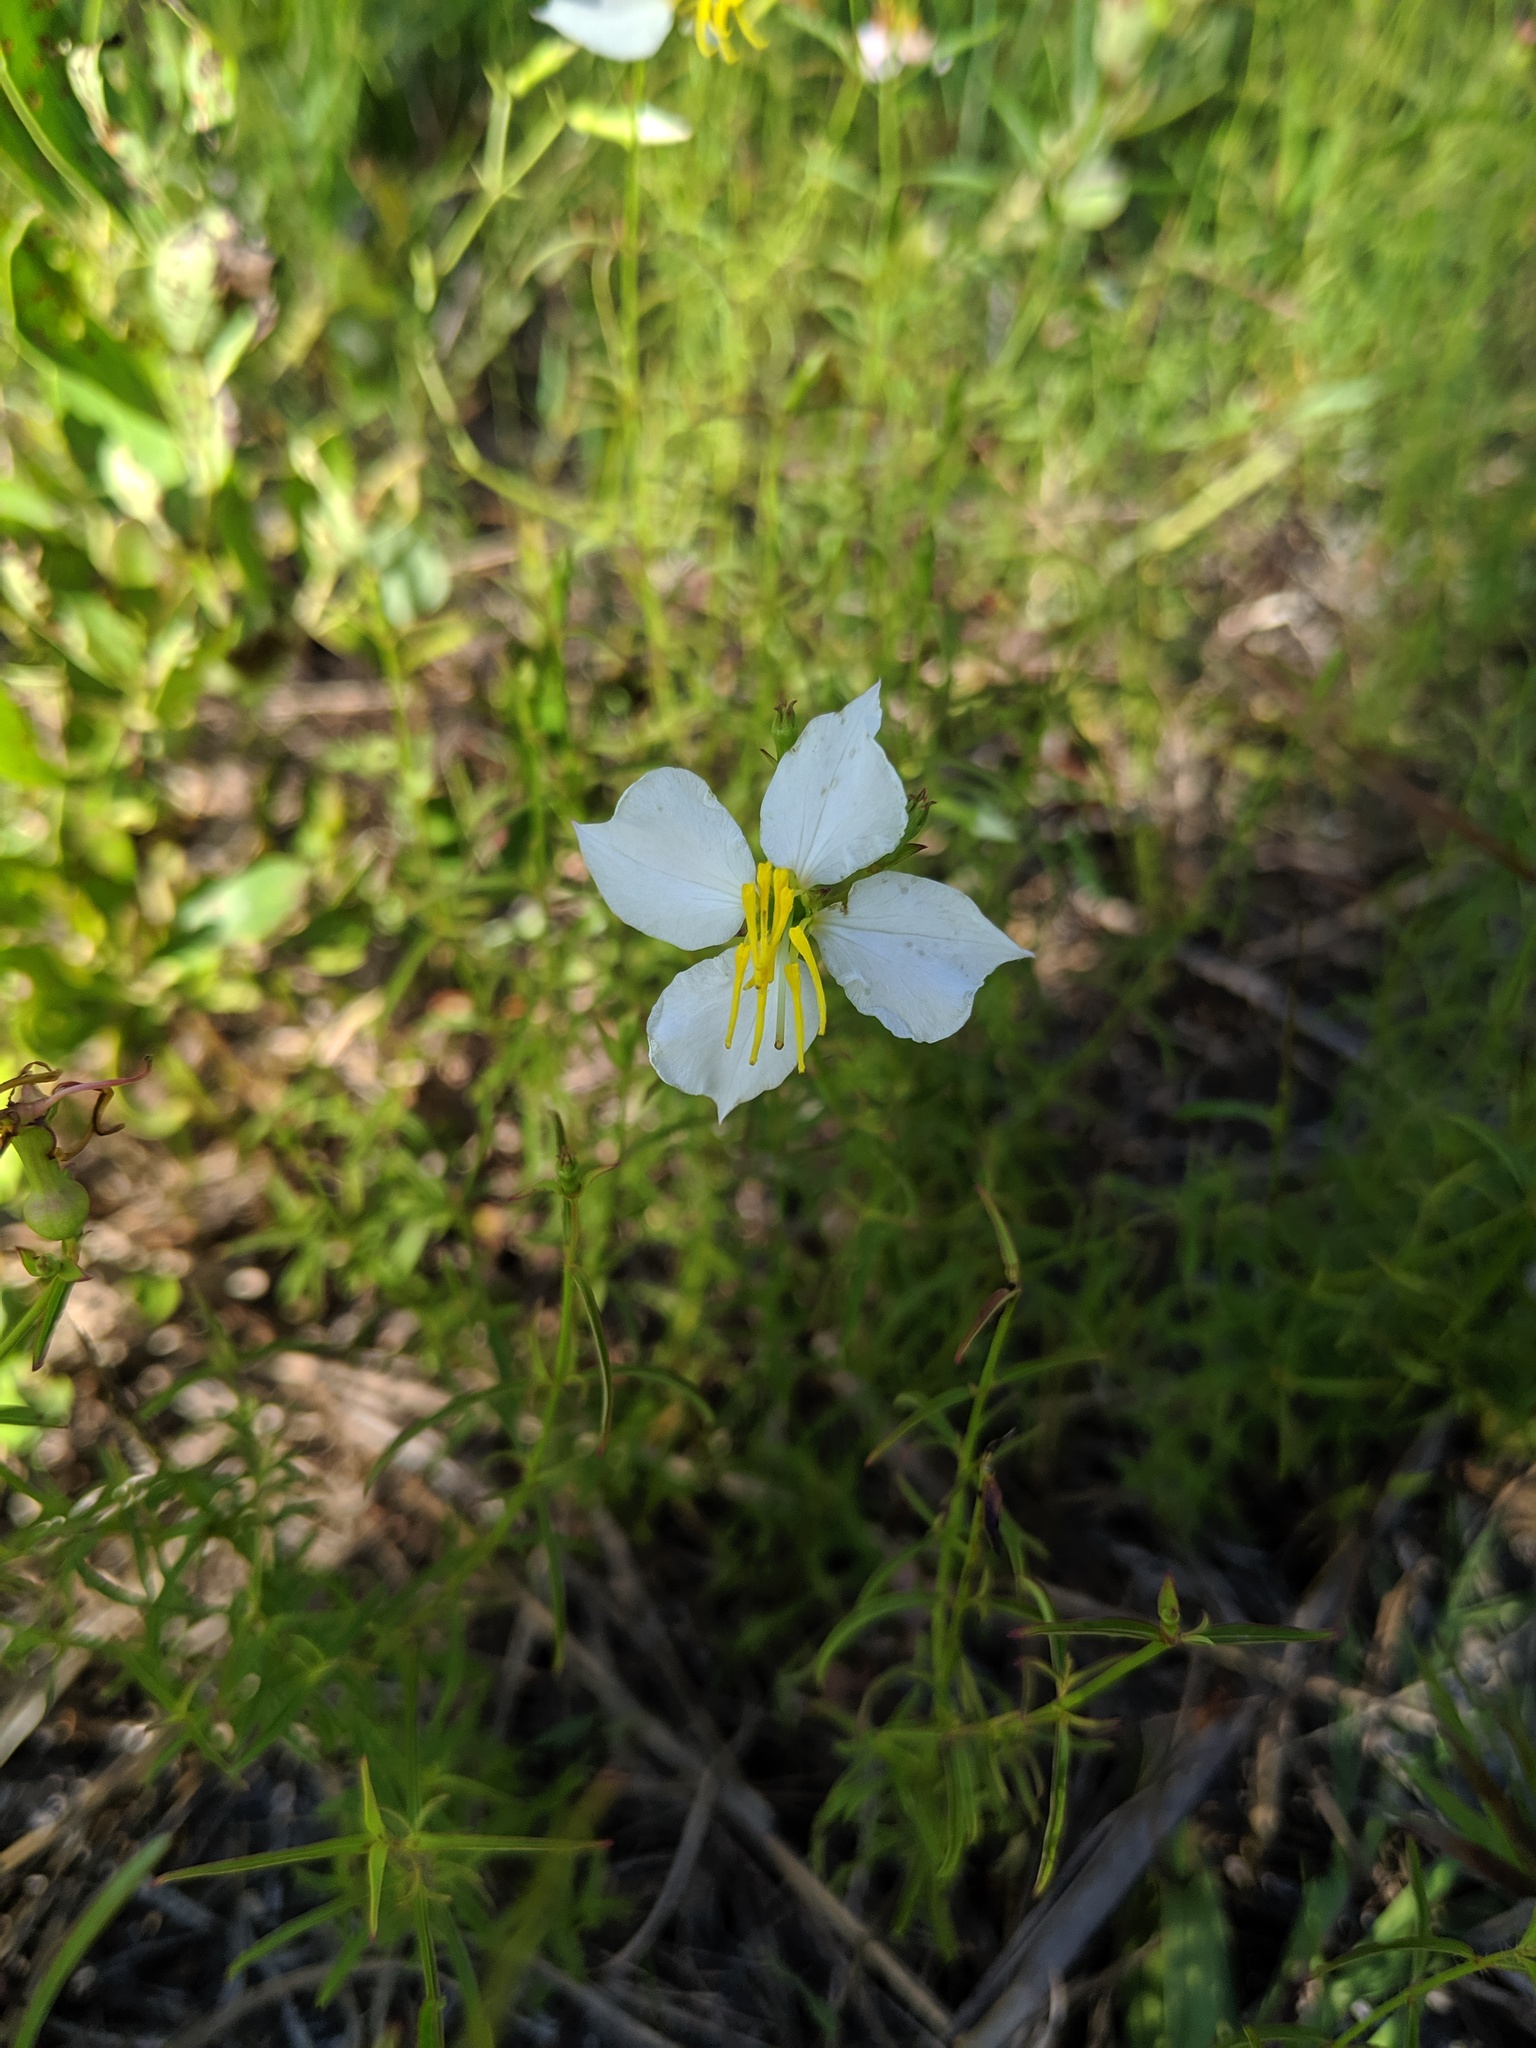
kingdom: Plantae
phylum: Tracheophyta
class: Magnoliopsida
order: Myrtales
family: Melastomataceae
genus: Rhexia
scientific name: Rhexia mariana
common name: Dull meadow-pitcher
